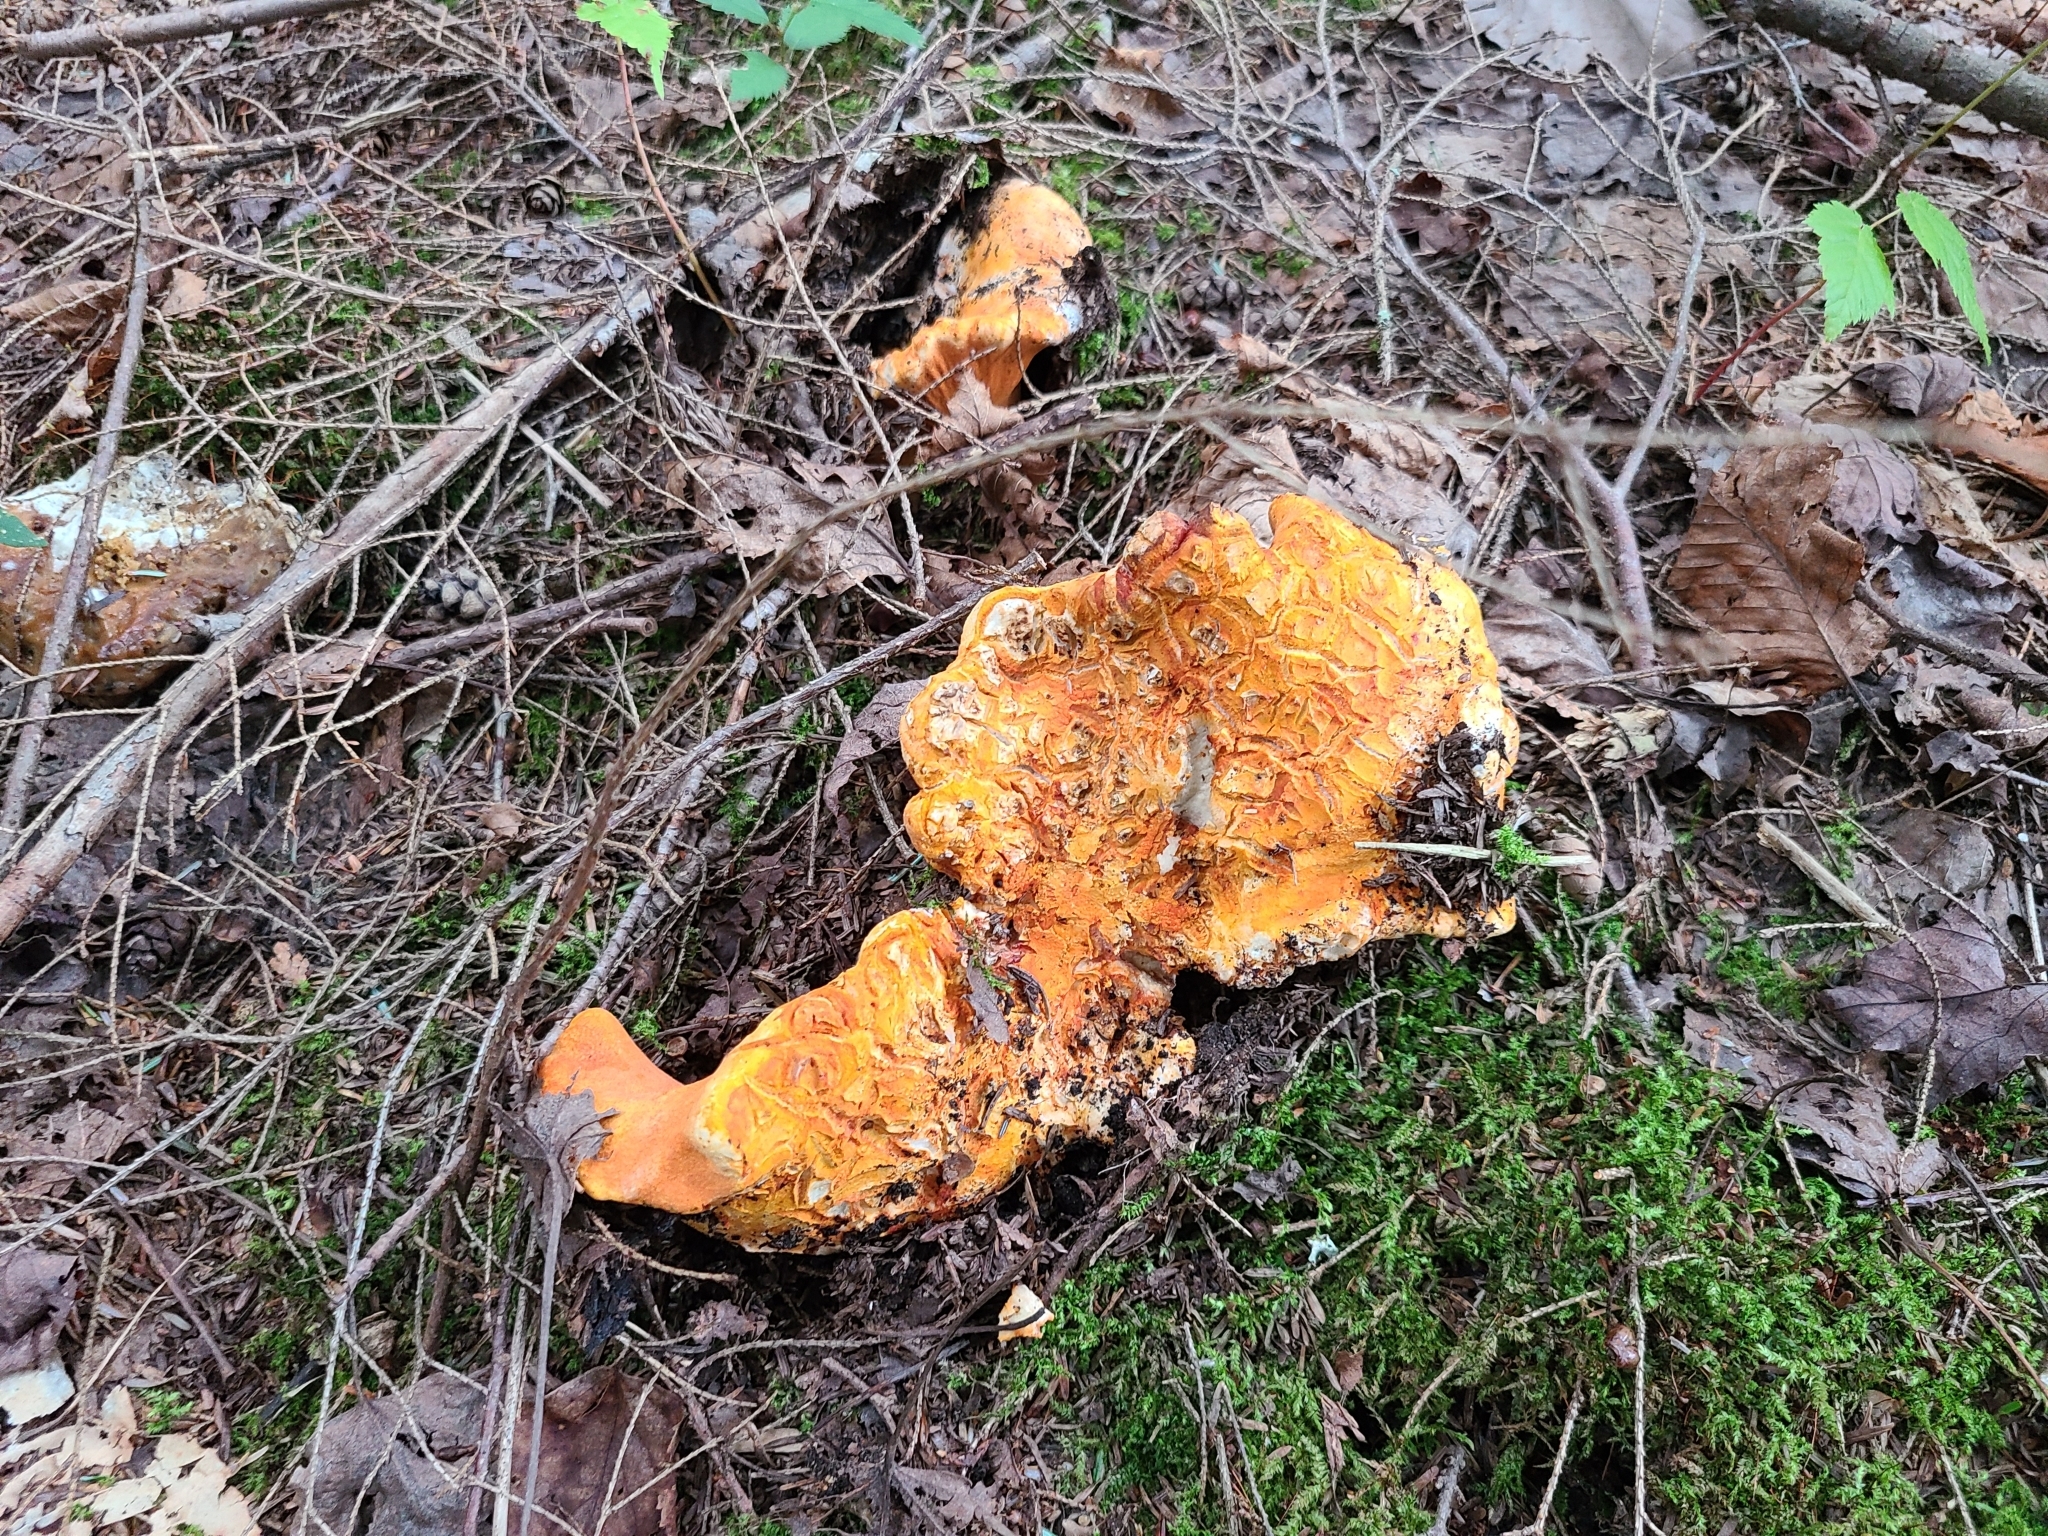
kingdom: Fungi
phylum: Ascomycota
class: Sordariomycetes
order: Hypocreales
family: Hypocreaceae
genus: Hypomyces
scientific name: Hypomyces lactifluorum
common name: Lobster mushroom
